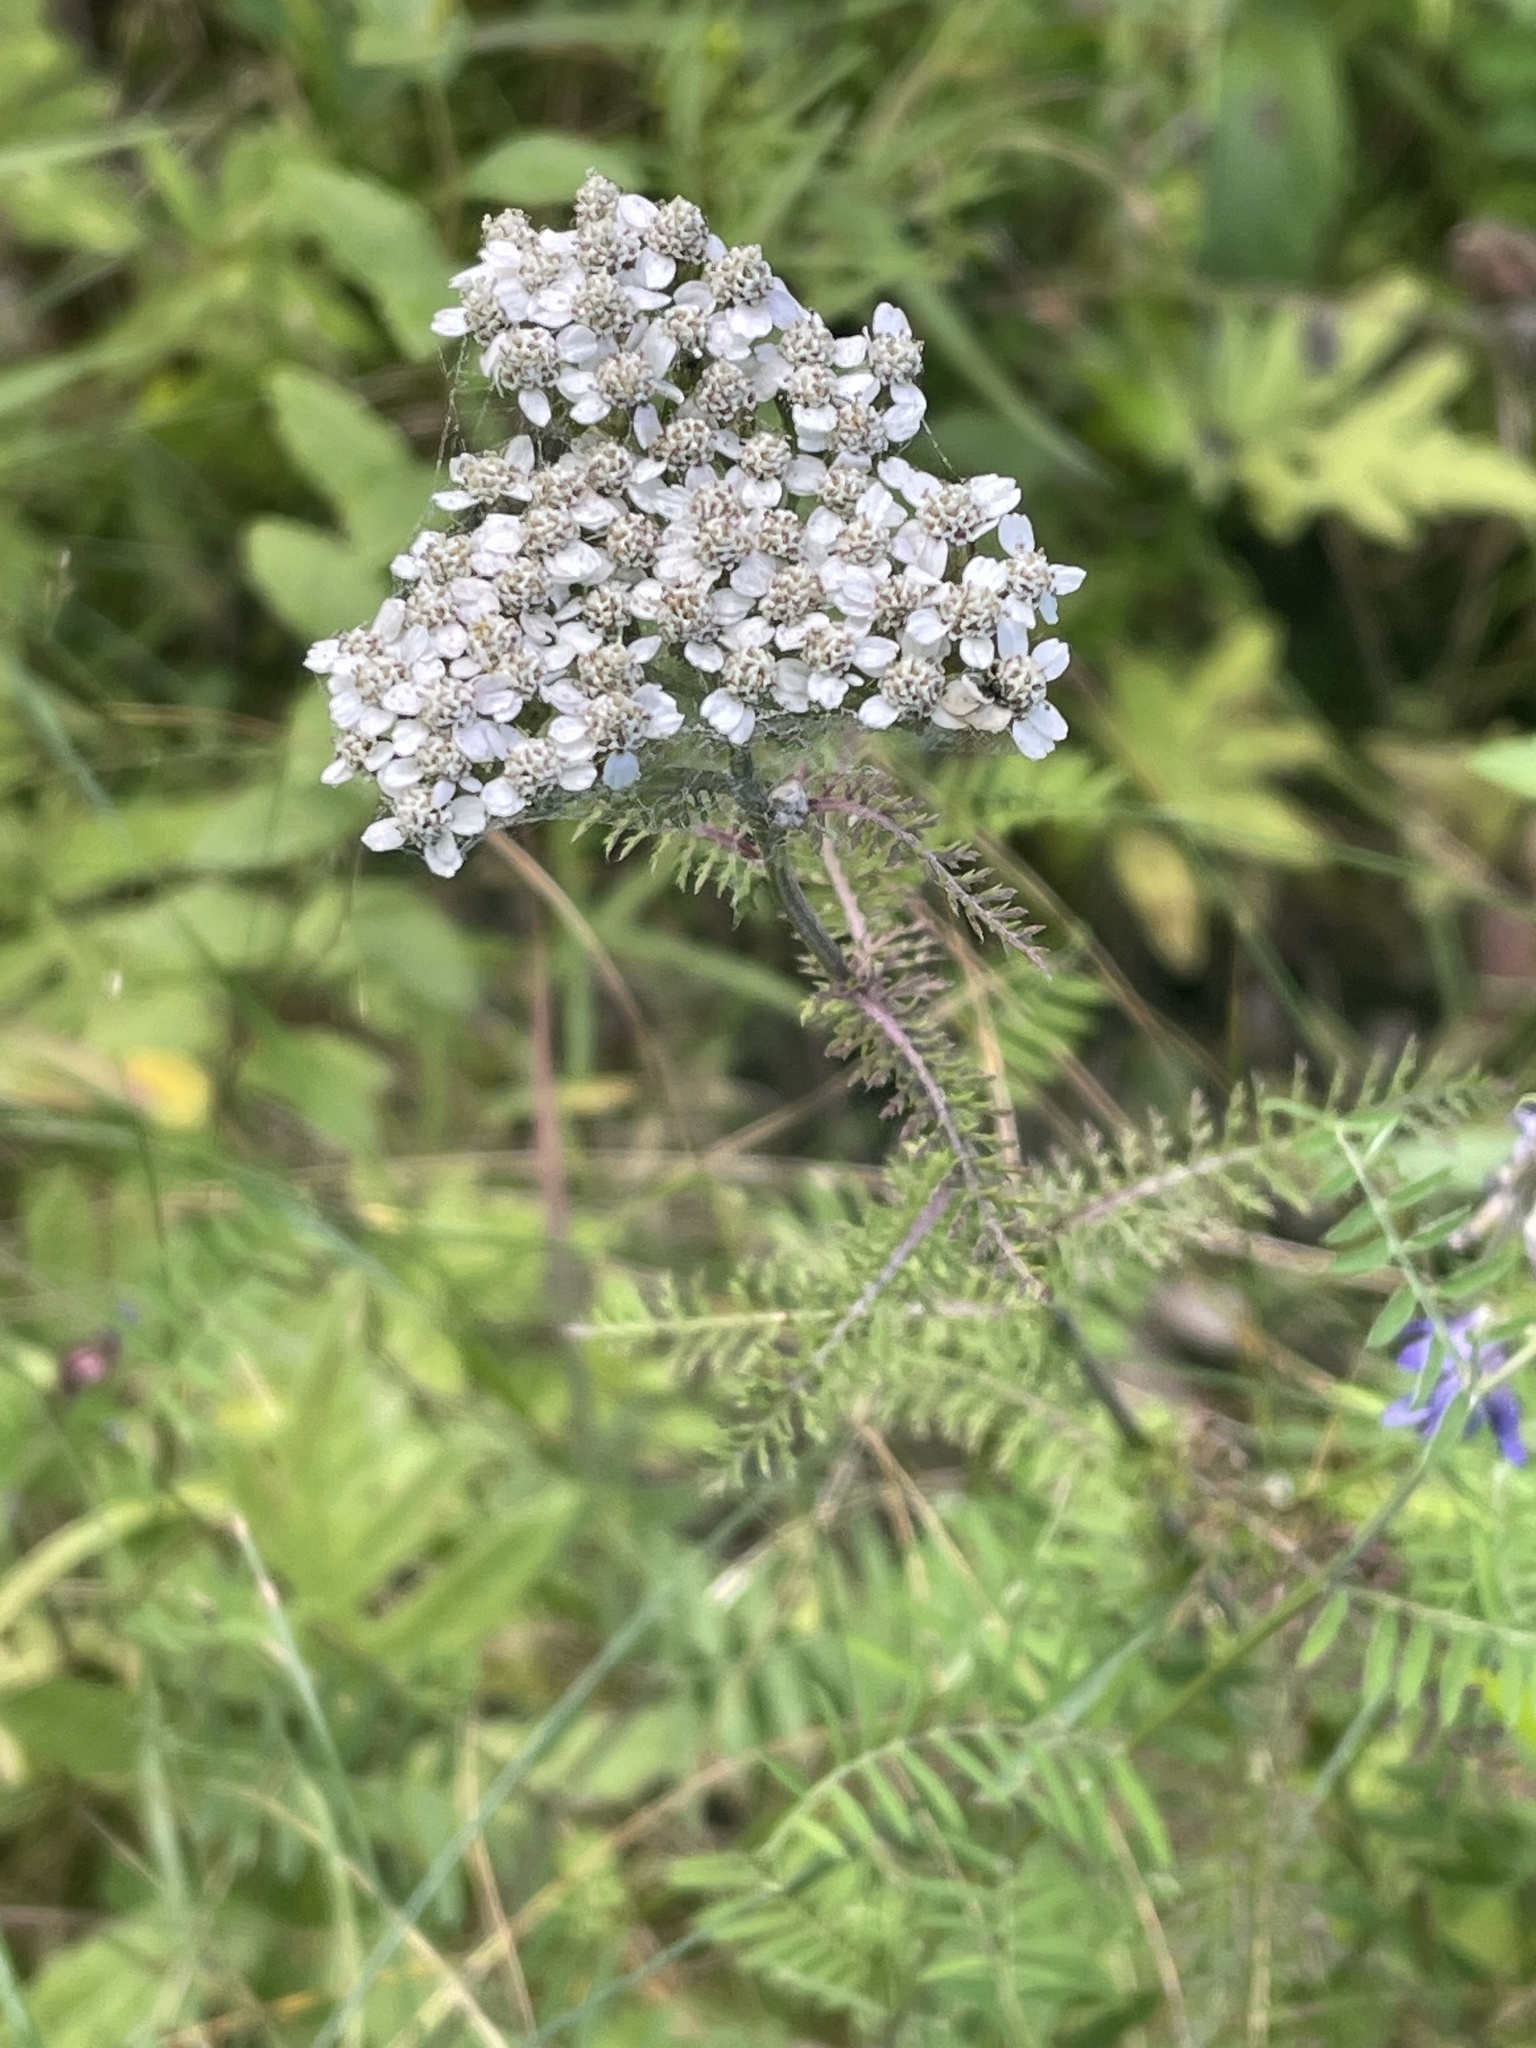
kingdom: Plantae
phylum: Tracheophyta
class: Magnoliopsida
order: Asterales
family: Asteraceae
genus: Achillea
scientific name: Achillea millefolium
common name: Yarrow
